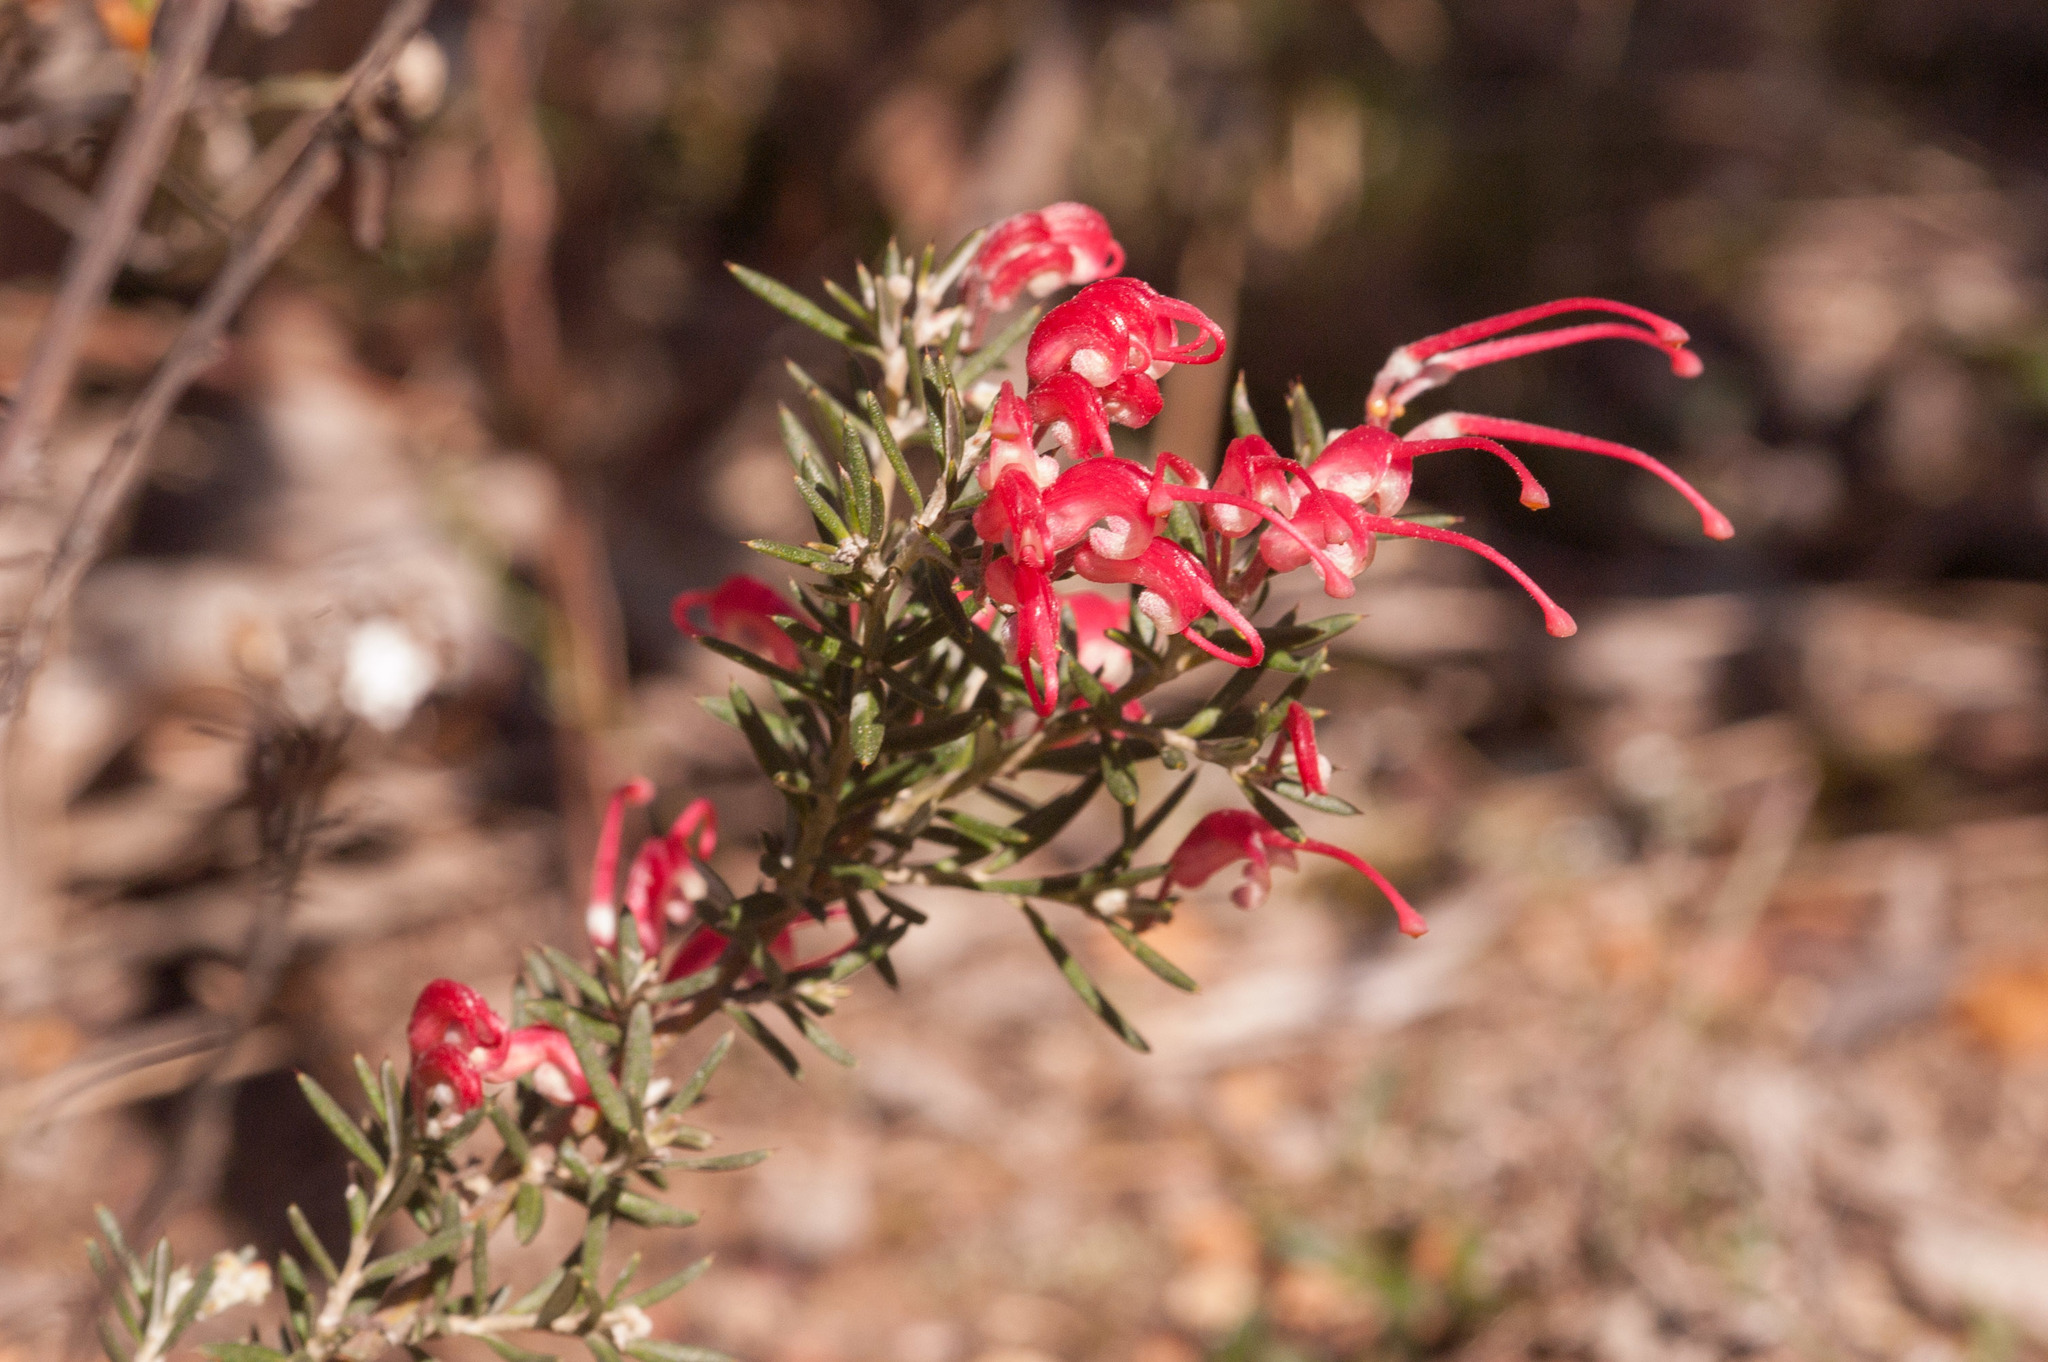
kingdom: Plantae
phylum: Tracheophyta
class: Magnoliopsida
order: Proteales
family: Proteaceae
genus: Grevillea
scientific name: Grevillea lavandulacea
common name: Lavender grevillea
